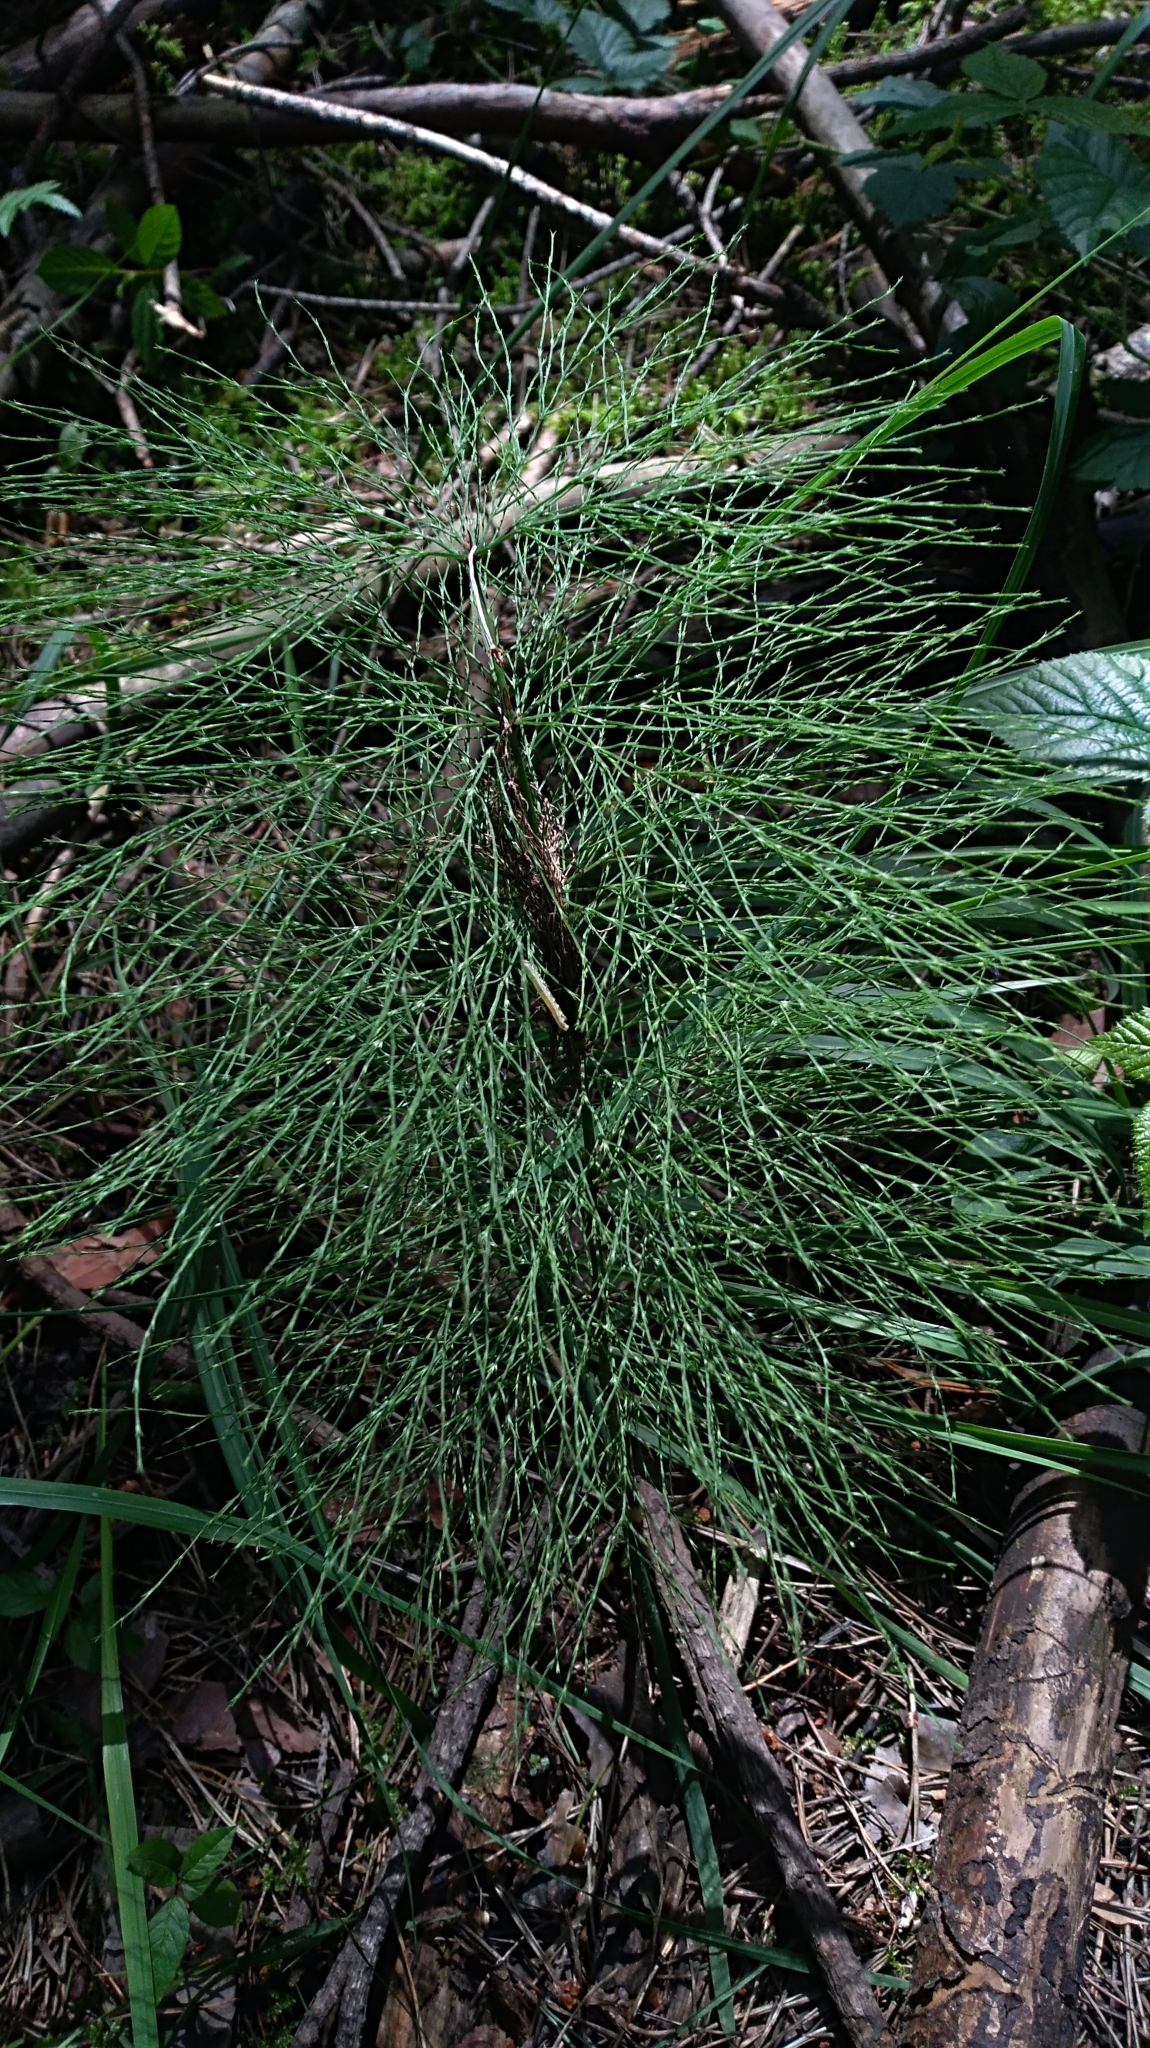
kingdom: Plantae
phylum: Tracheophyta
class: Polypodiopsida
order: Equisetales
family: Equisetaceae
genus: Equisetum
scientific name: Equisetum sylvaticum
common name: Wood horsetail
